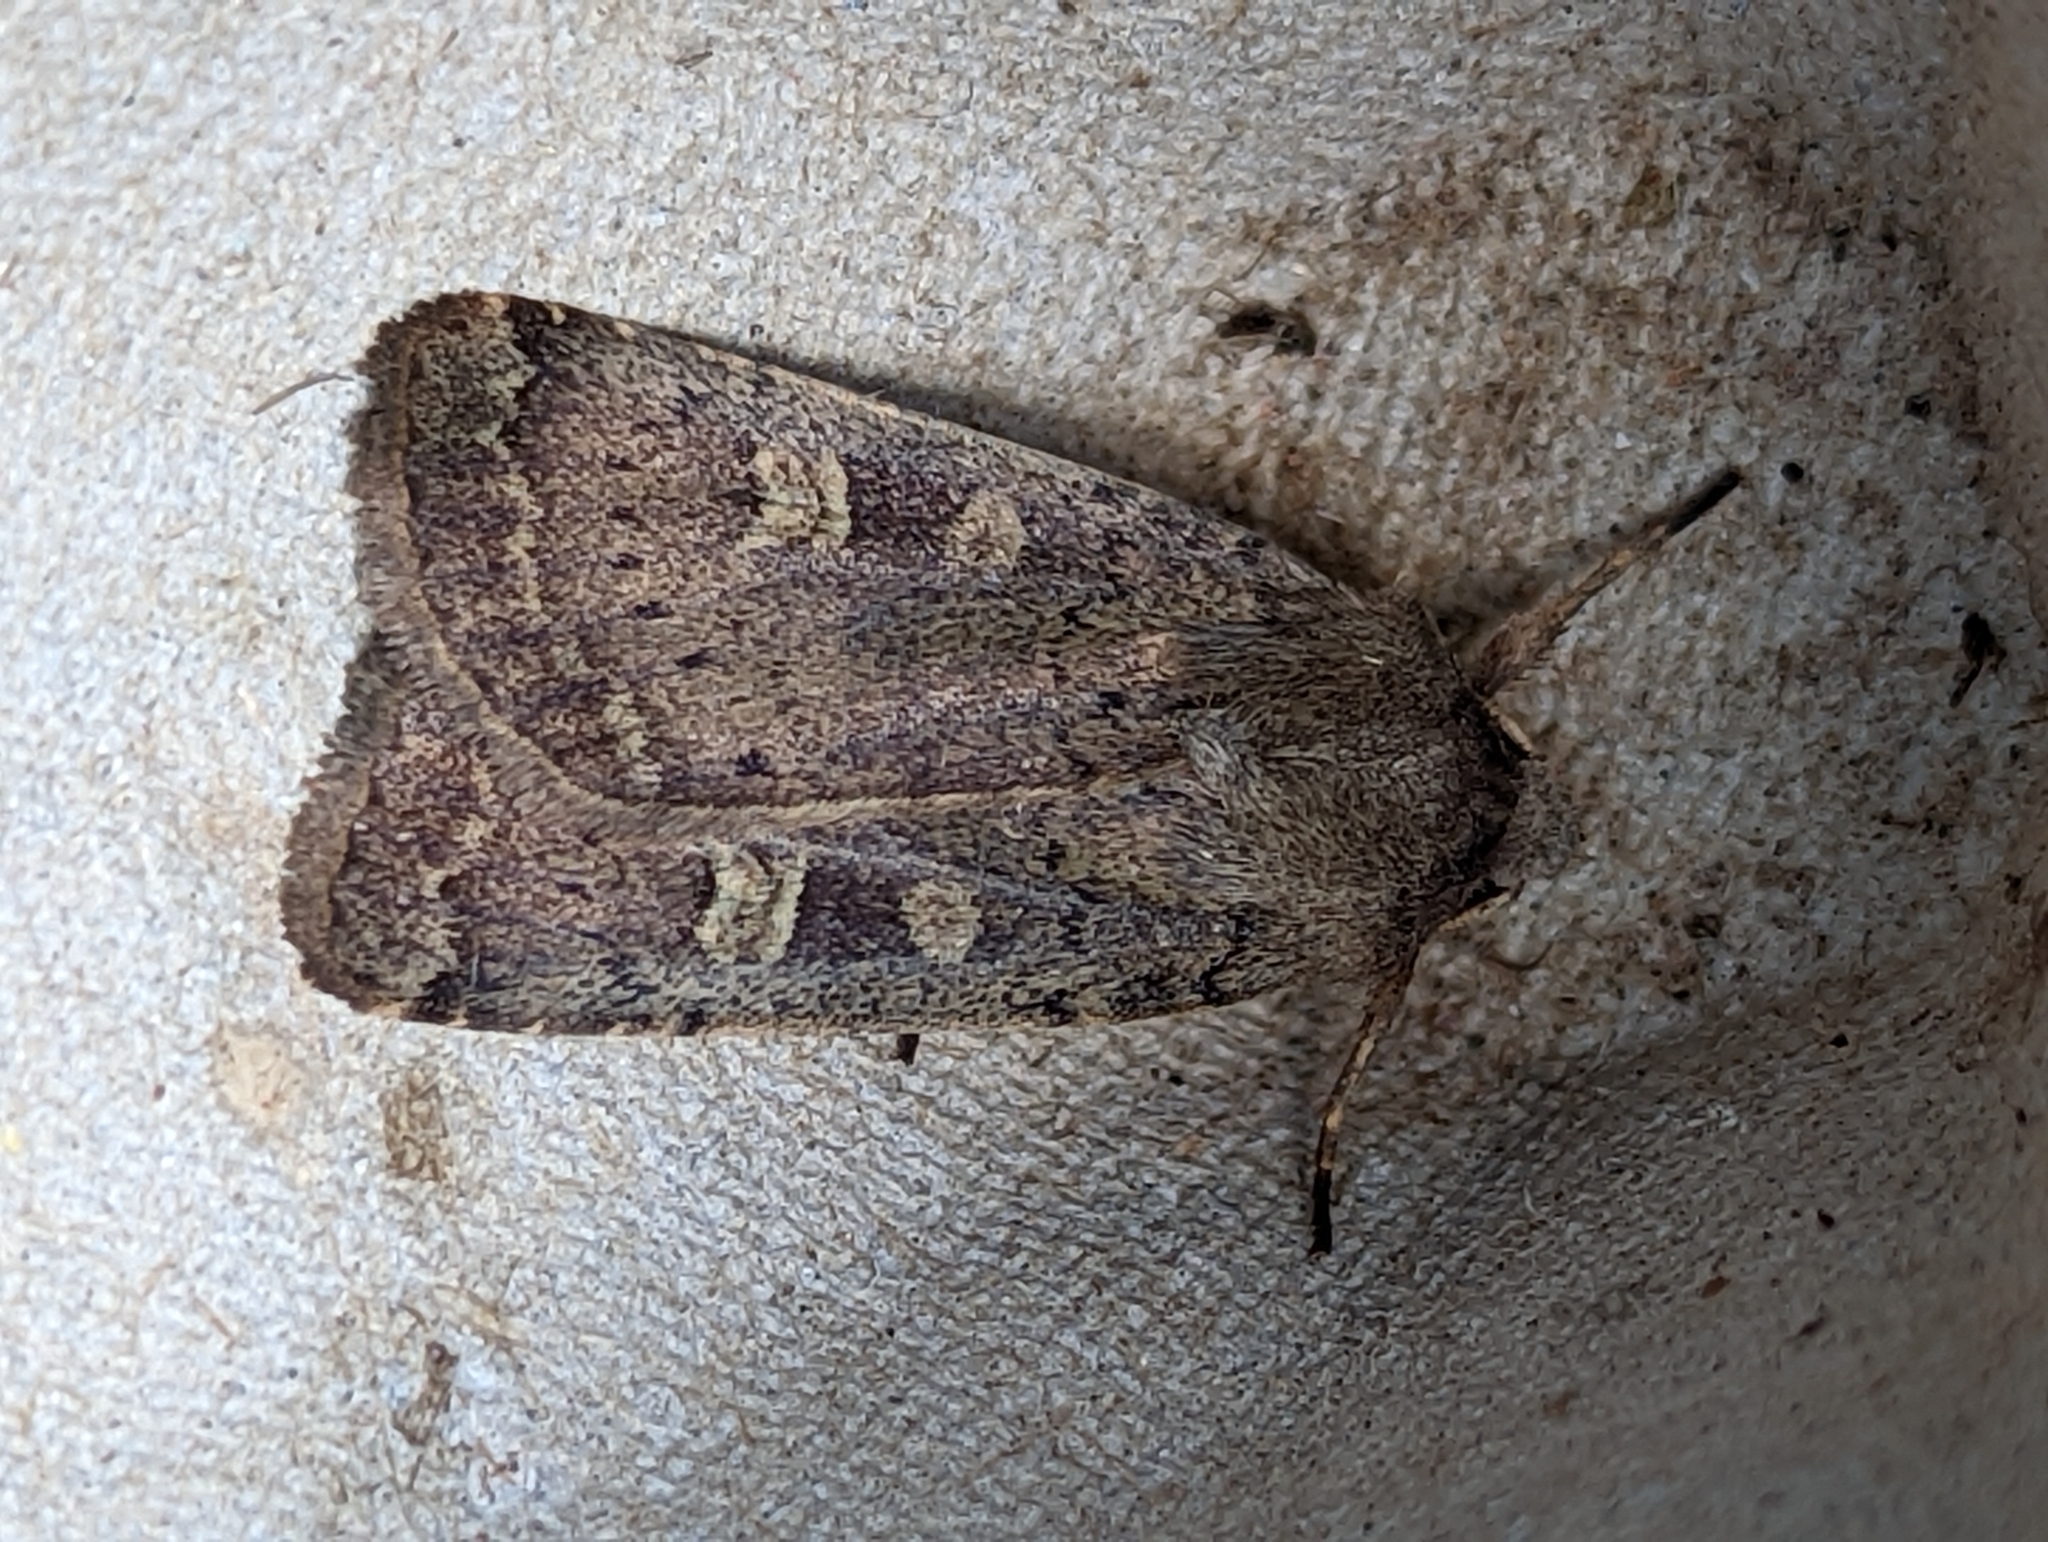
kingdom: Animalia
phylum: Arthropoda
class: Insecta
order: Lepidoptera
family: Noctuidae
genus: Xestia
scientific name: Xestia xanthographa
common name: Square-spot rustic
